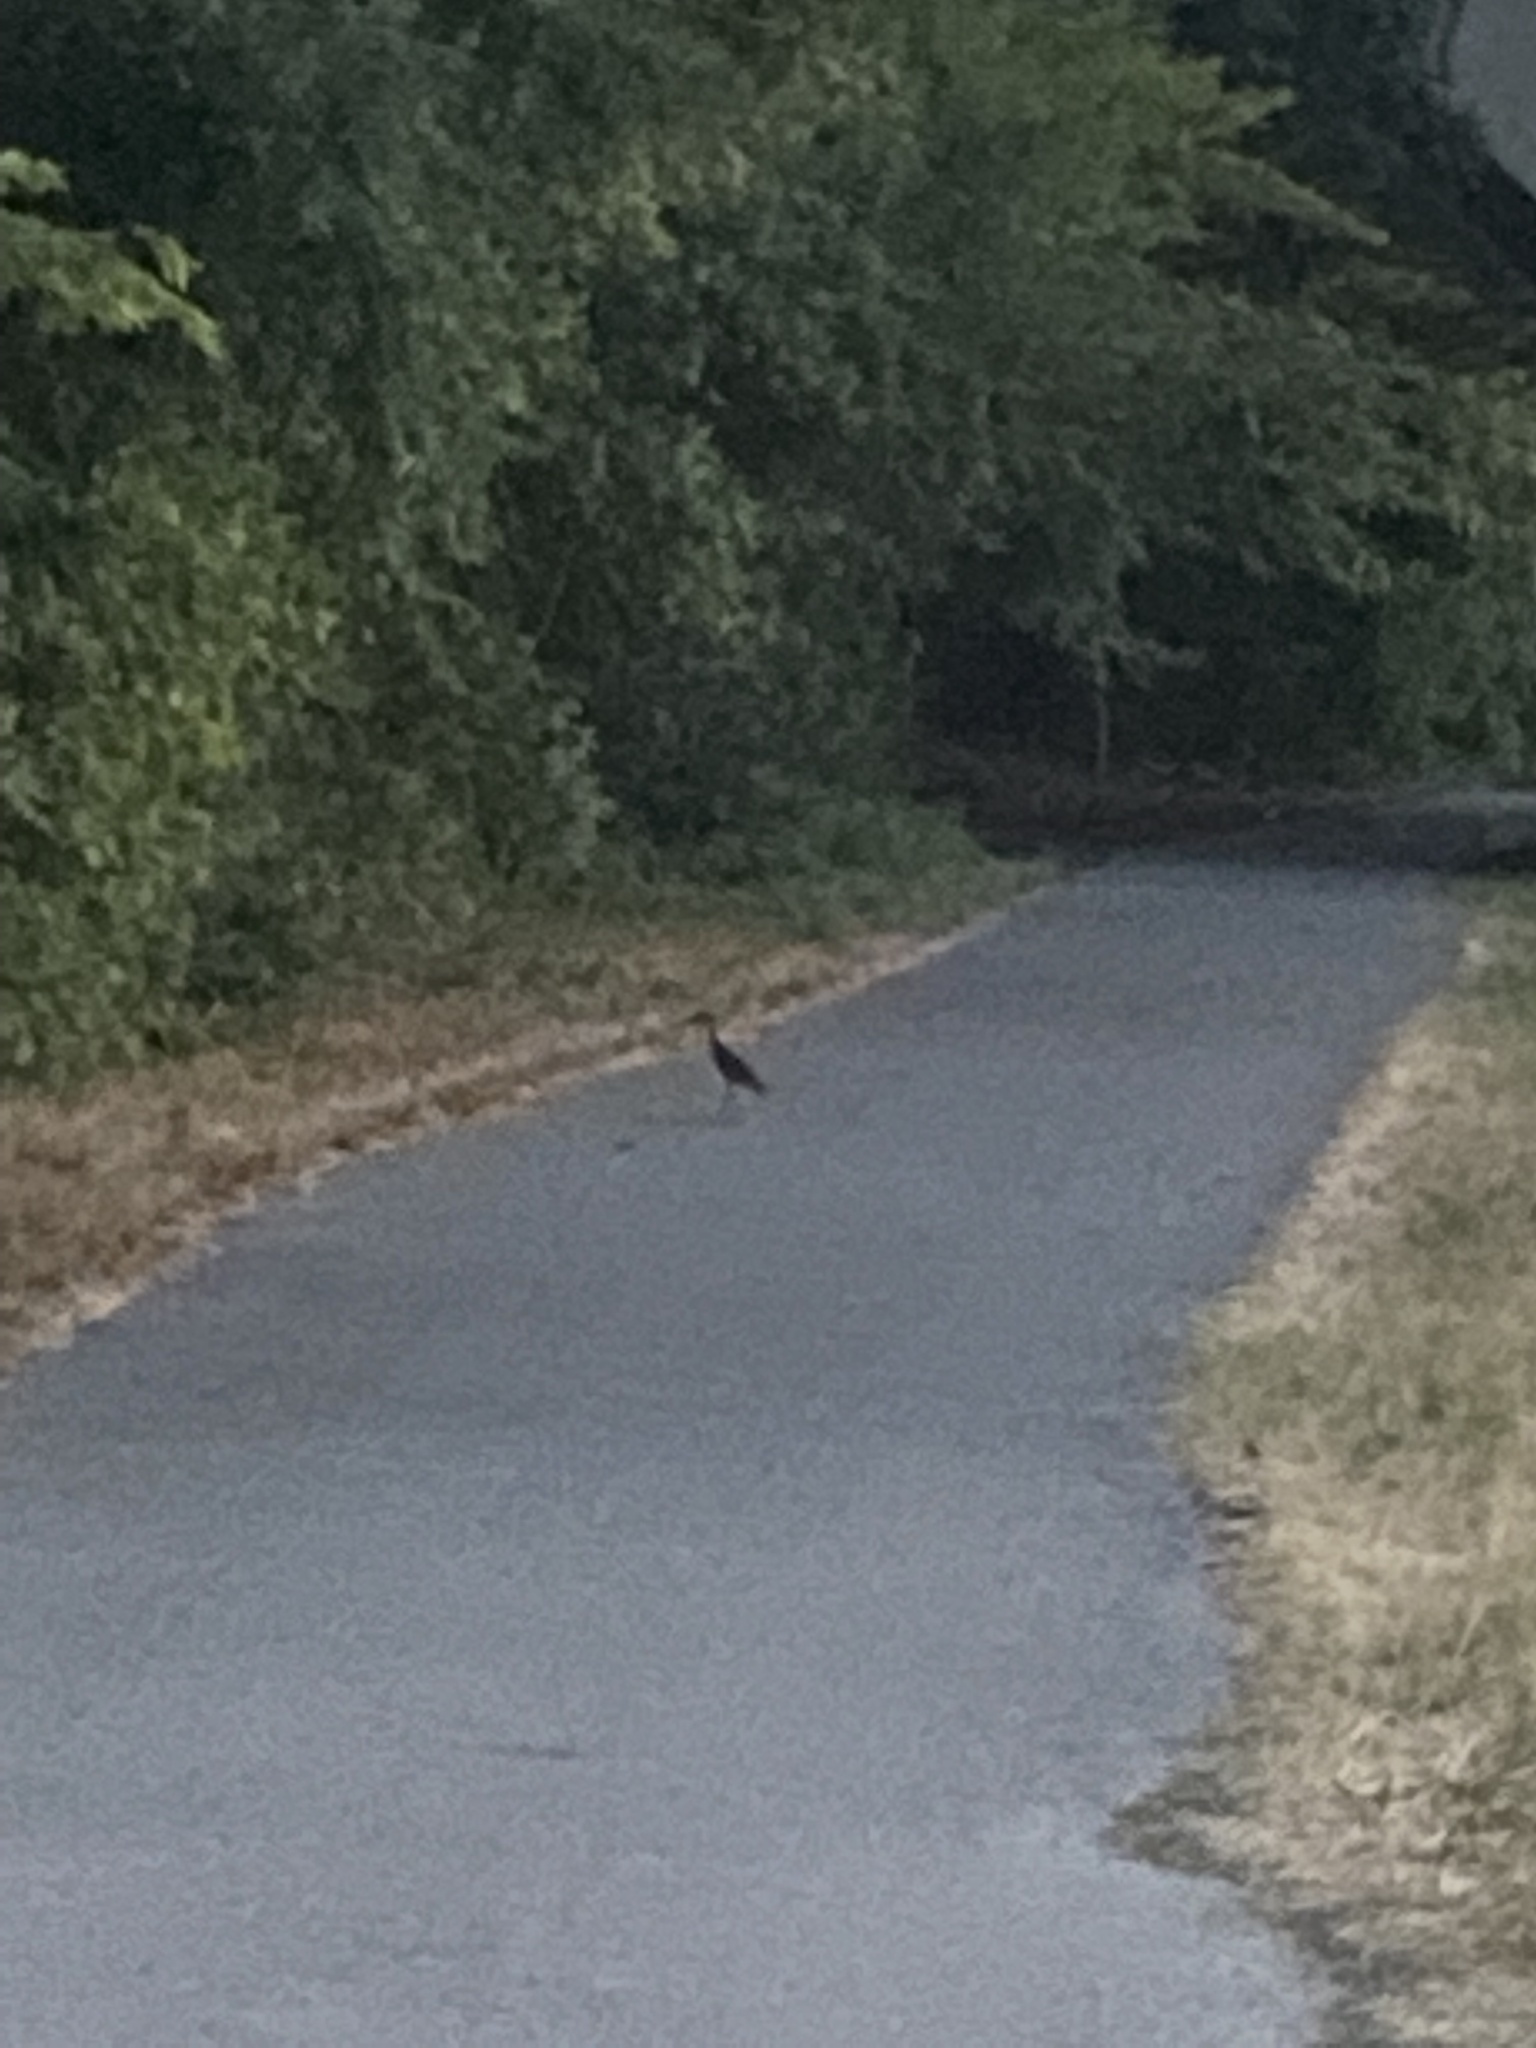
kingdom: Animalia
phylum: Chordata
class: Aves
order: Pelecaniformes
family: Ardeidae
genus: Nyctanassa
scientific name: Nyctanassa violacea
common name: Yellow-crowned night heron
